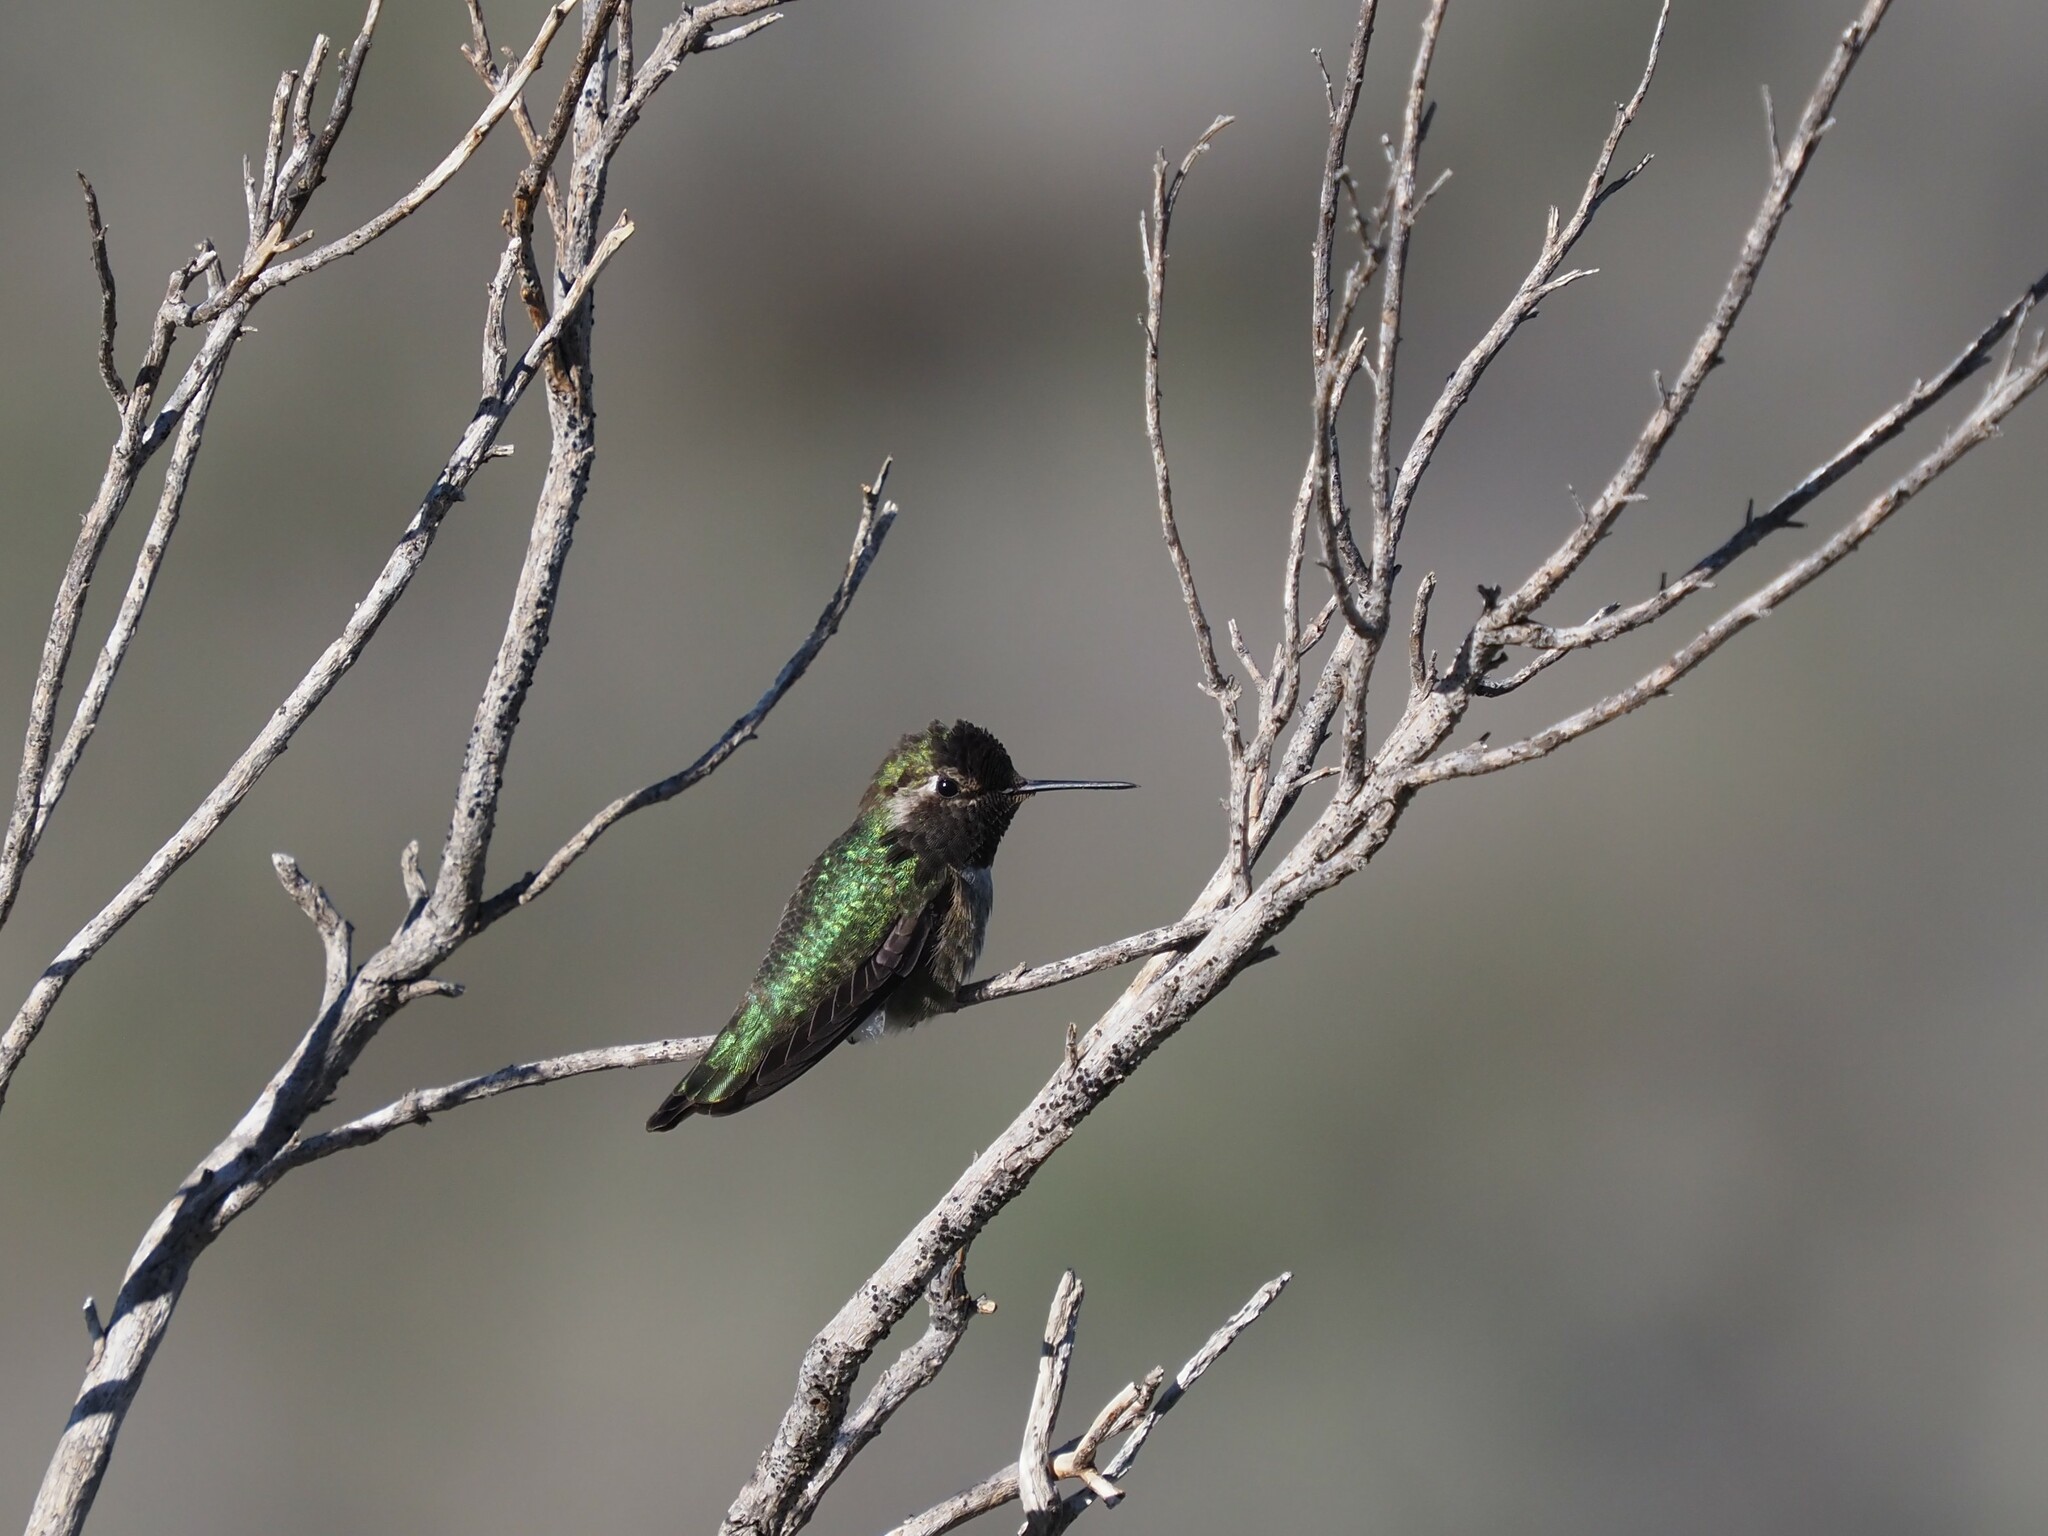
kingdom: Animalia
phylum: Chordata
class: Aves
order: Apodiformes
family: Trochilidae
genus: Calypte
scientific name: Calypte anna
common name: Anna's hummingbird
